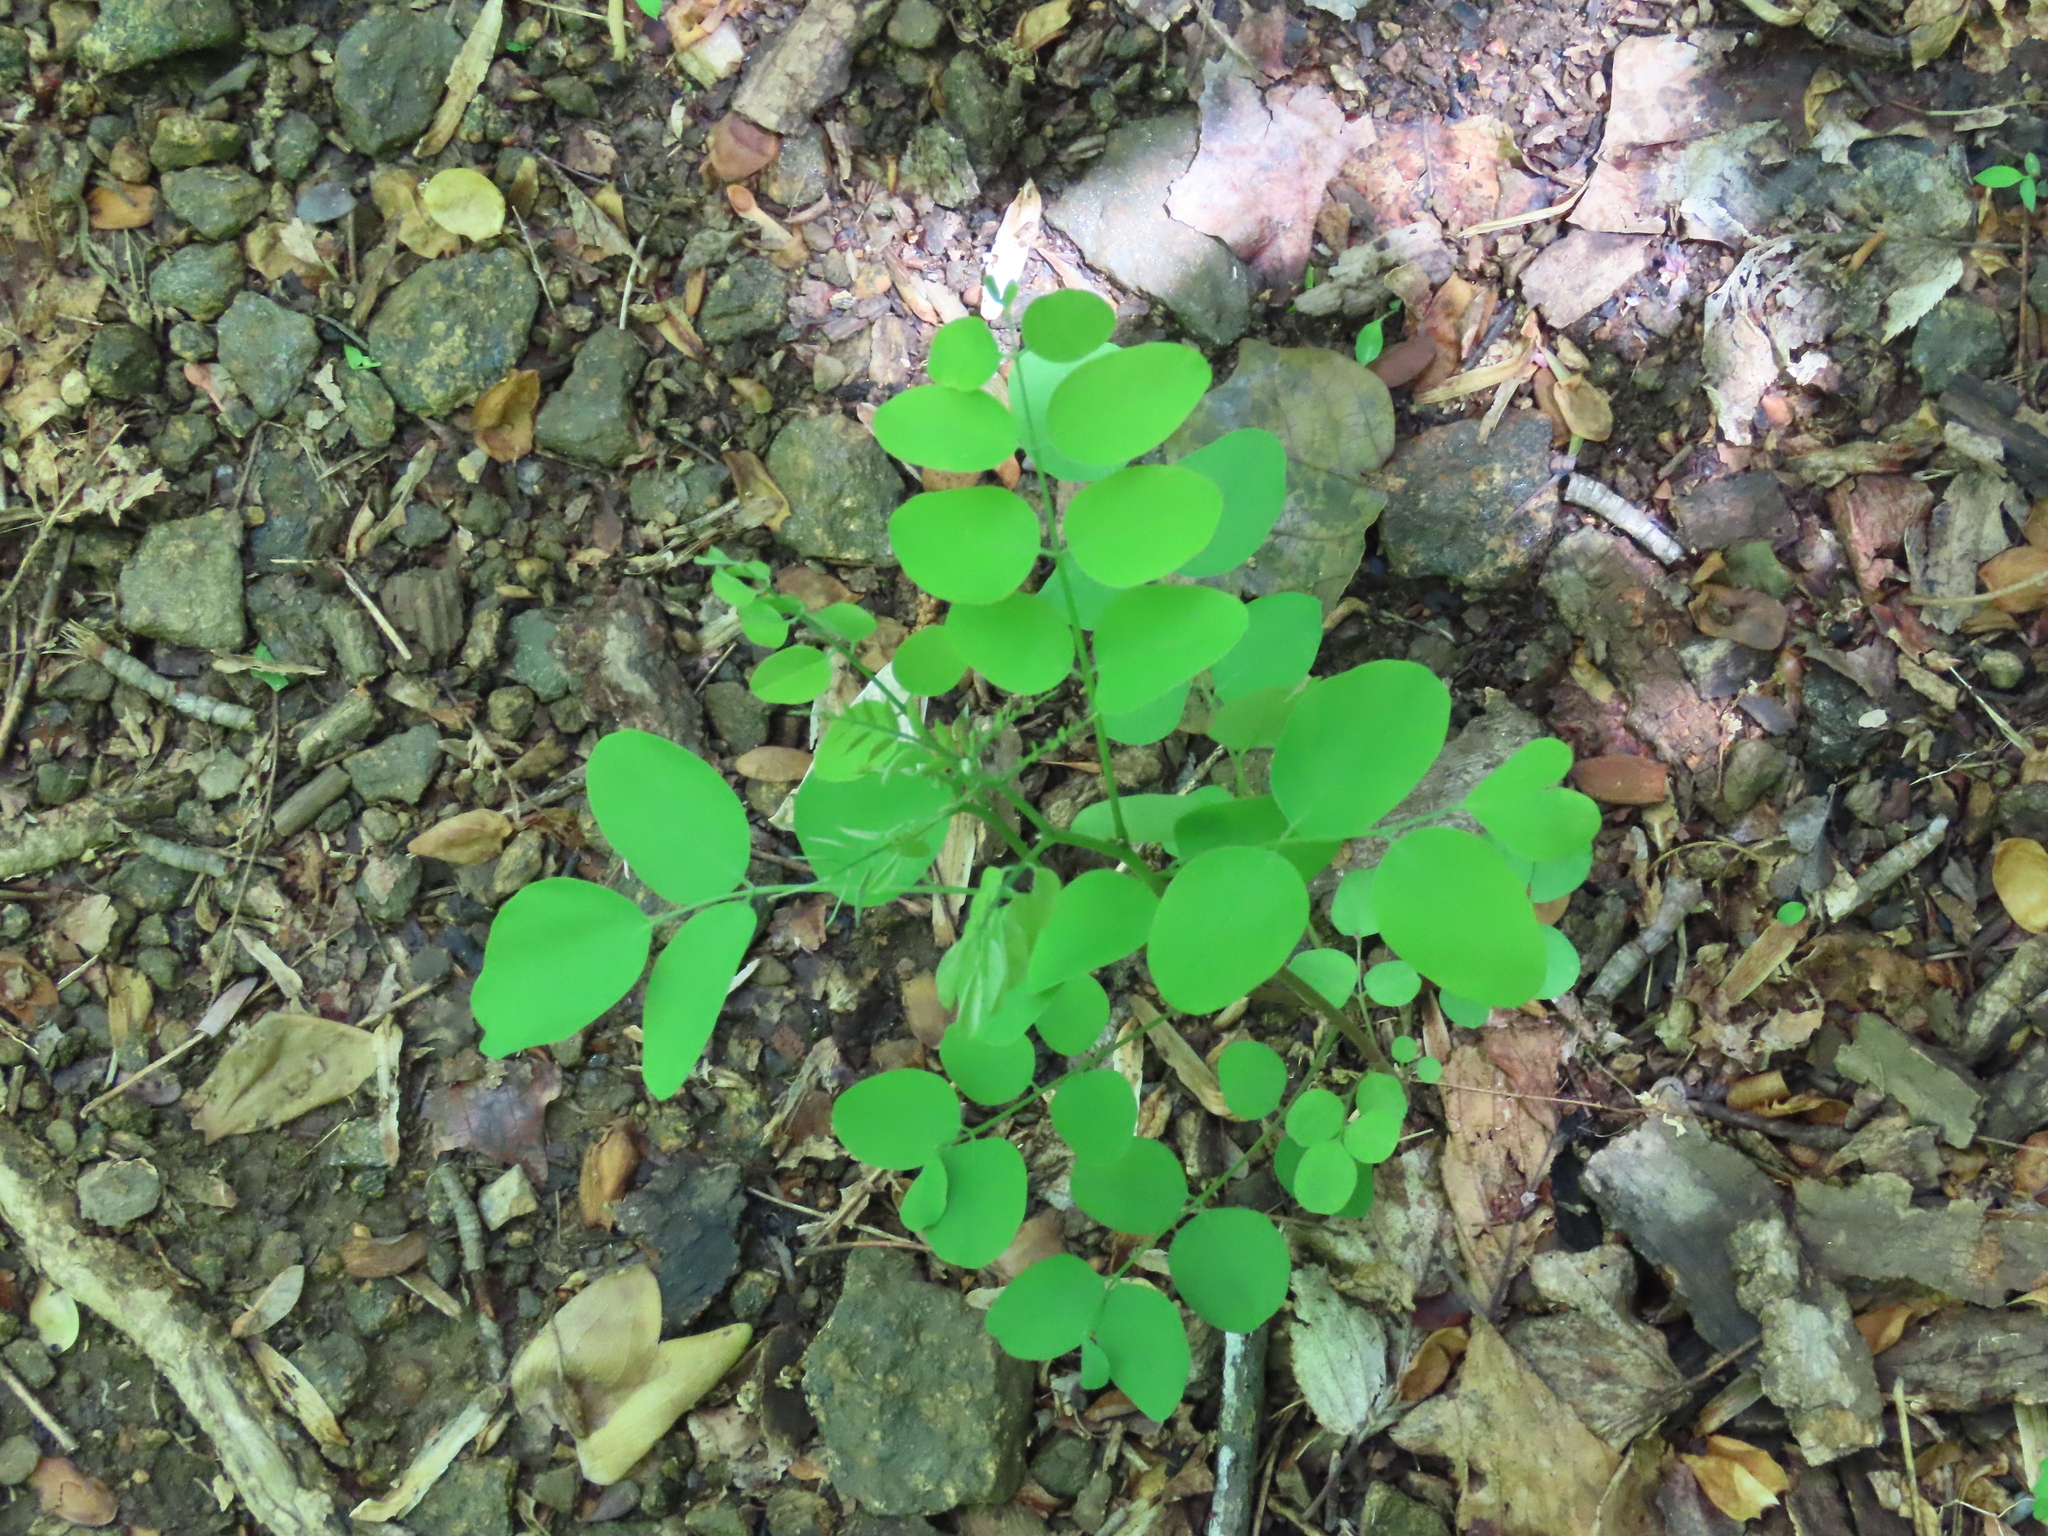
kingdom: Plantae
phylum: Tracheophyta
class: Magnoliopsida
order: Fabales
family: Fabaceae
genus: Robinia
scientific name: Robinia pseudoacacia
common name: Black locust
